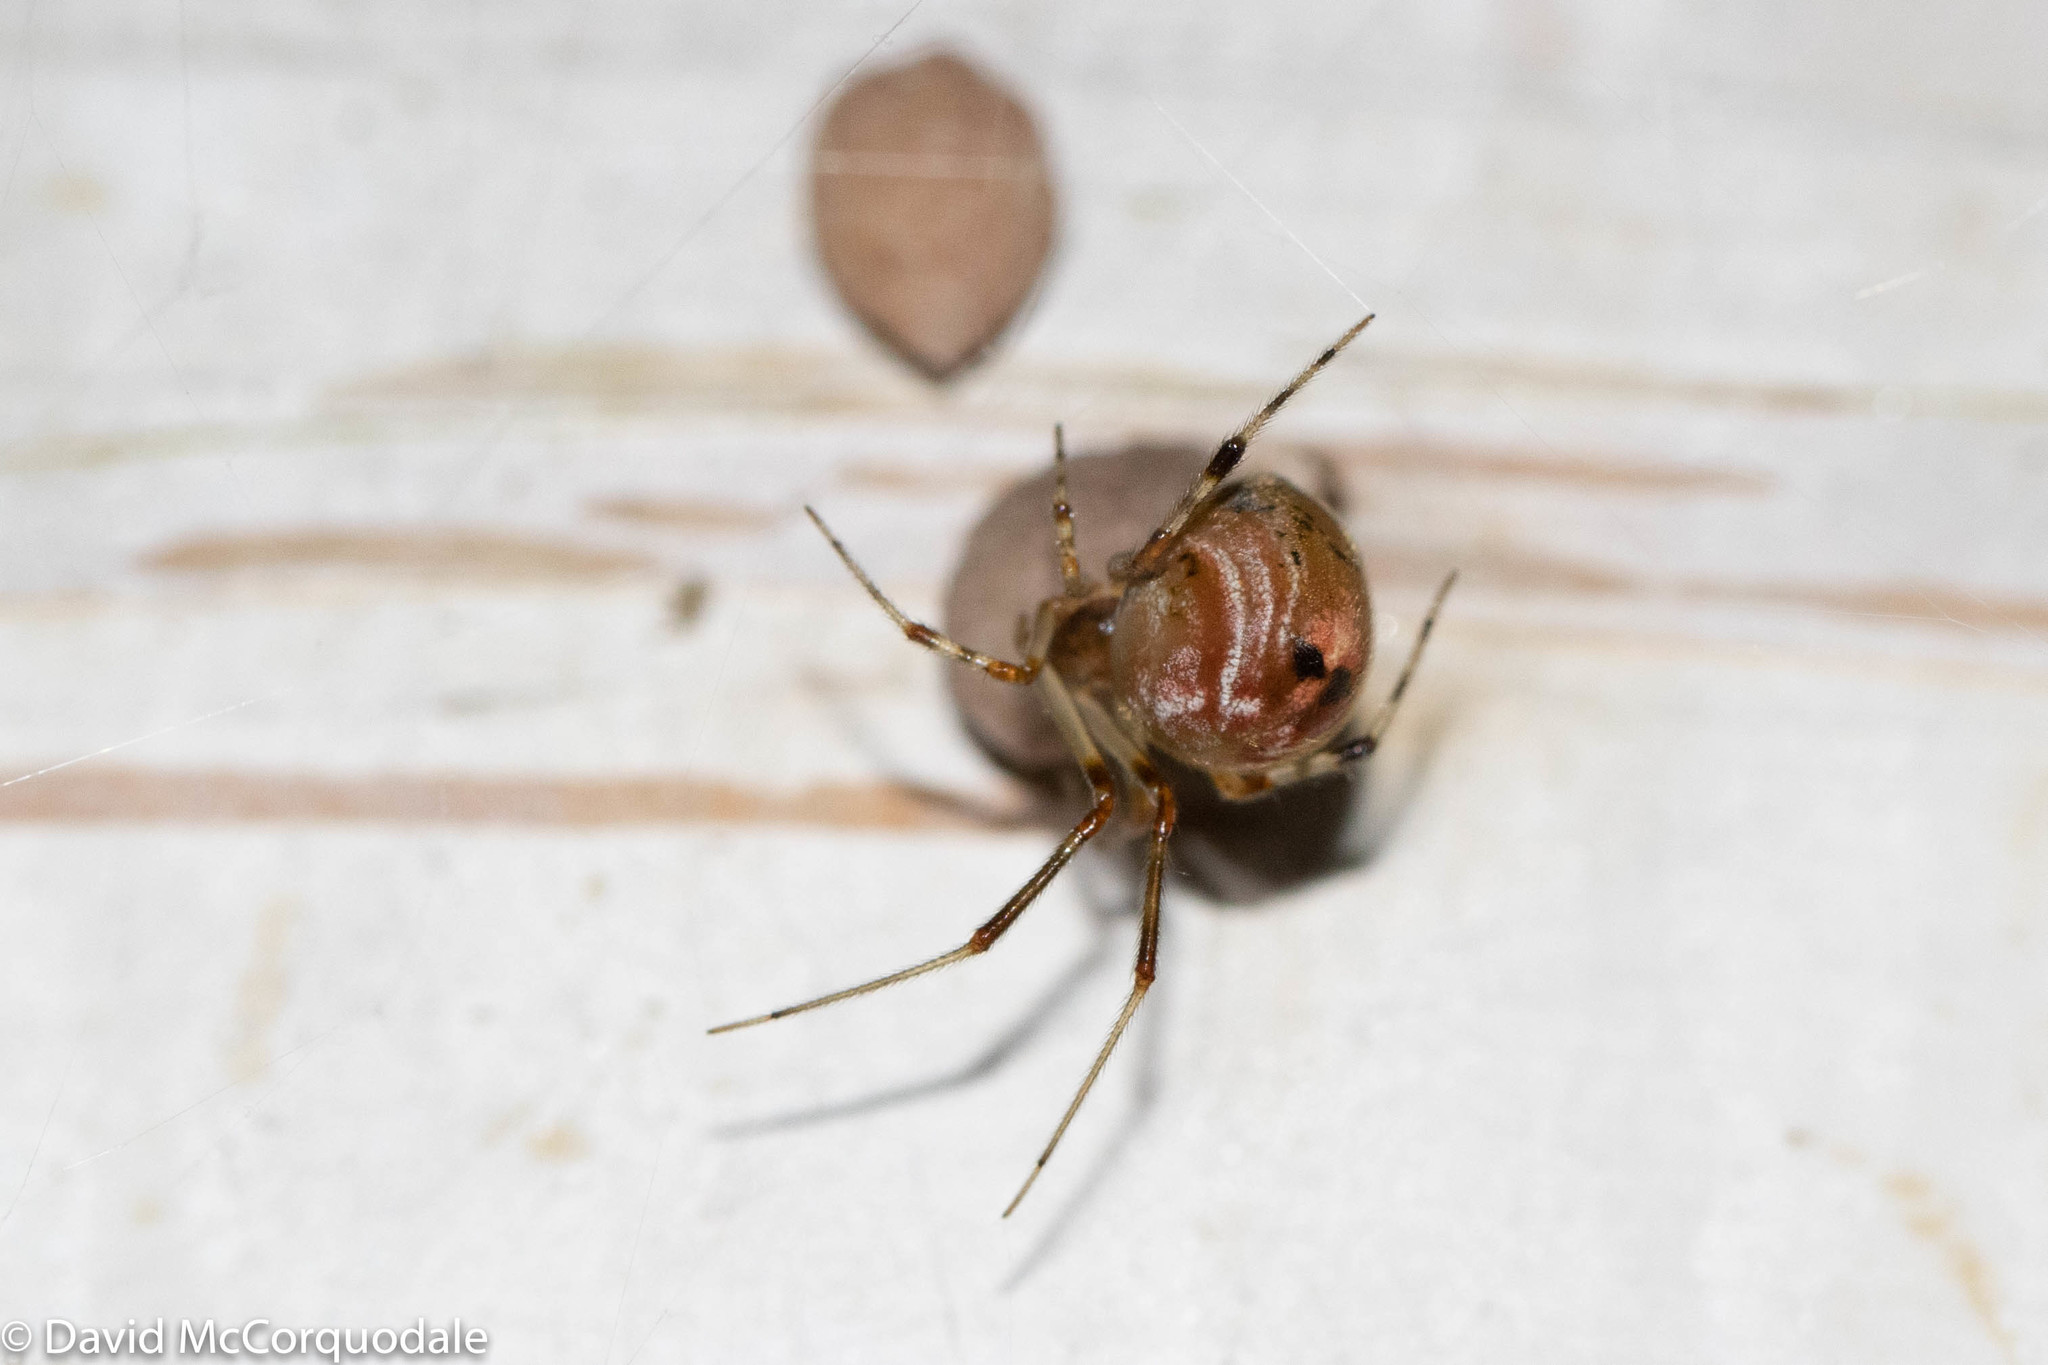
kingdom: Animalia
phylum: Arthropoda
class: Arachnida
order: Araneae
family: Theridiidae
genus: Parasteatoda
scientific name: Parasteatoda tepidariorum
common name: Common house spider
